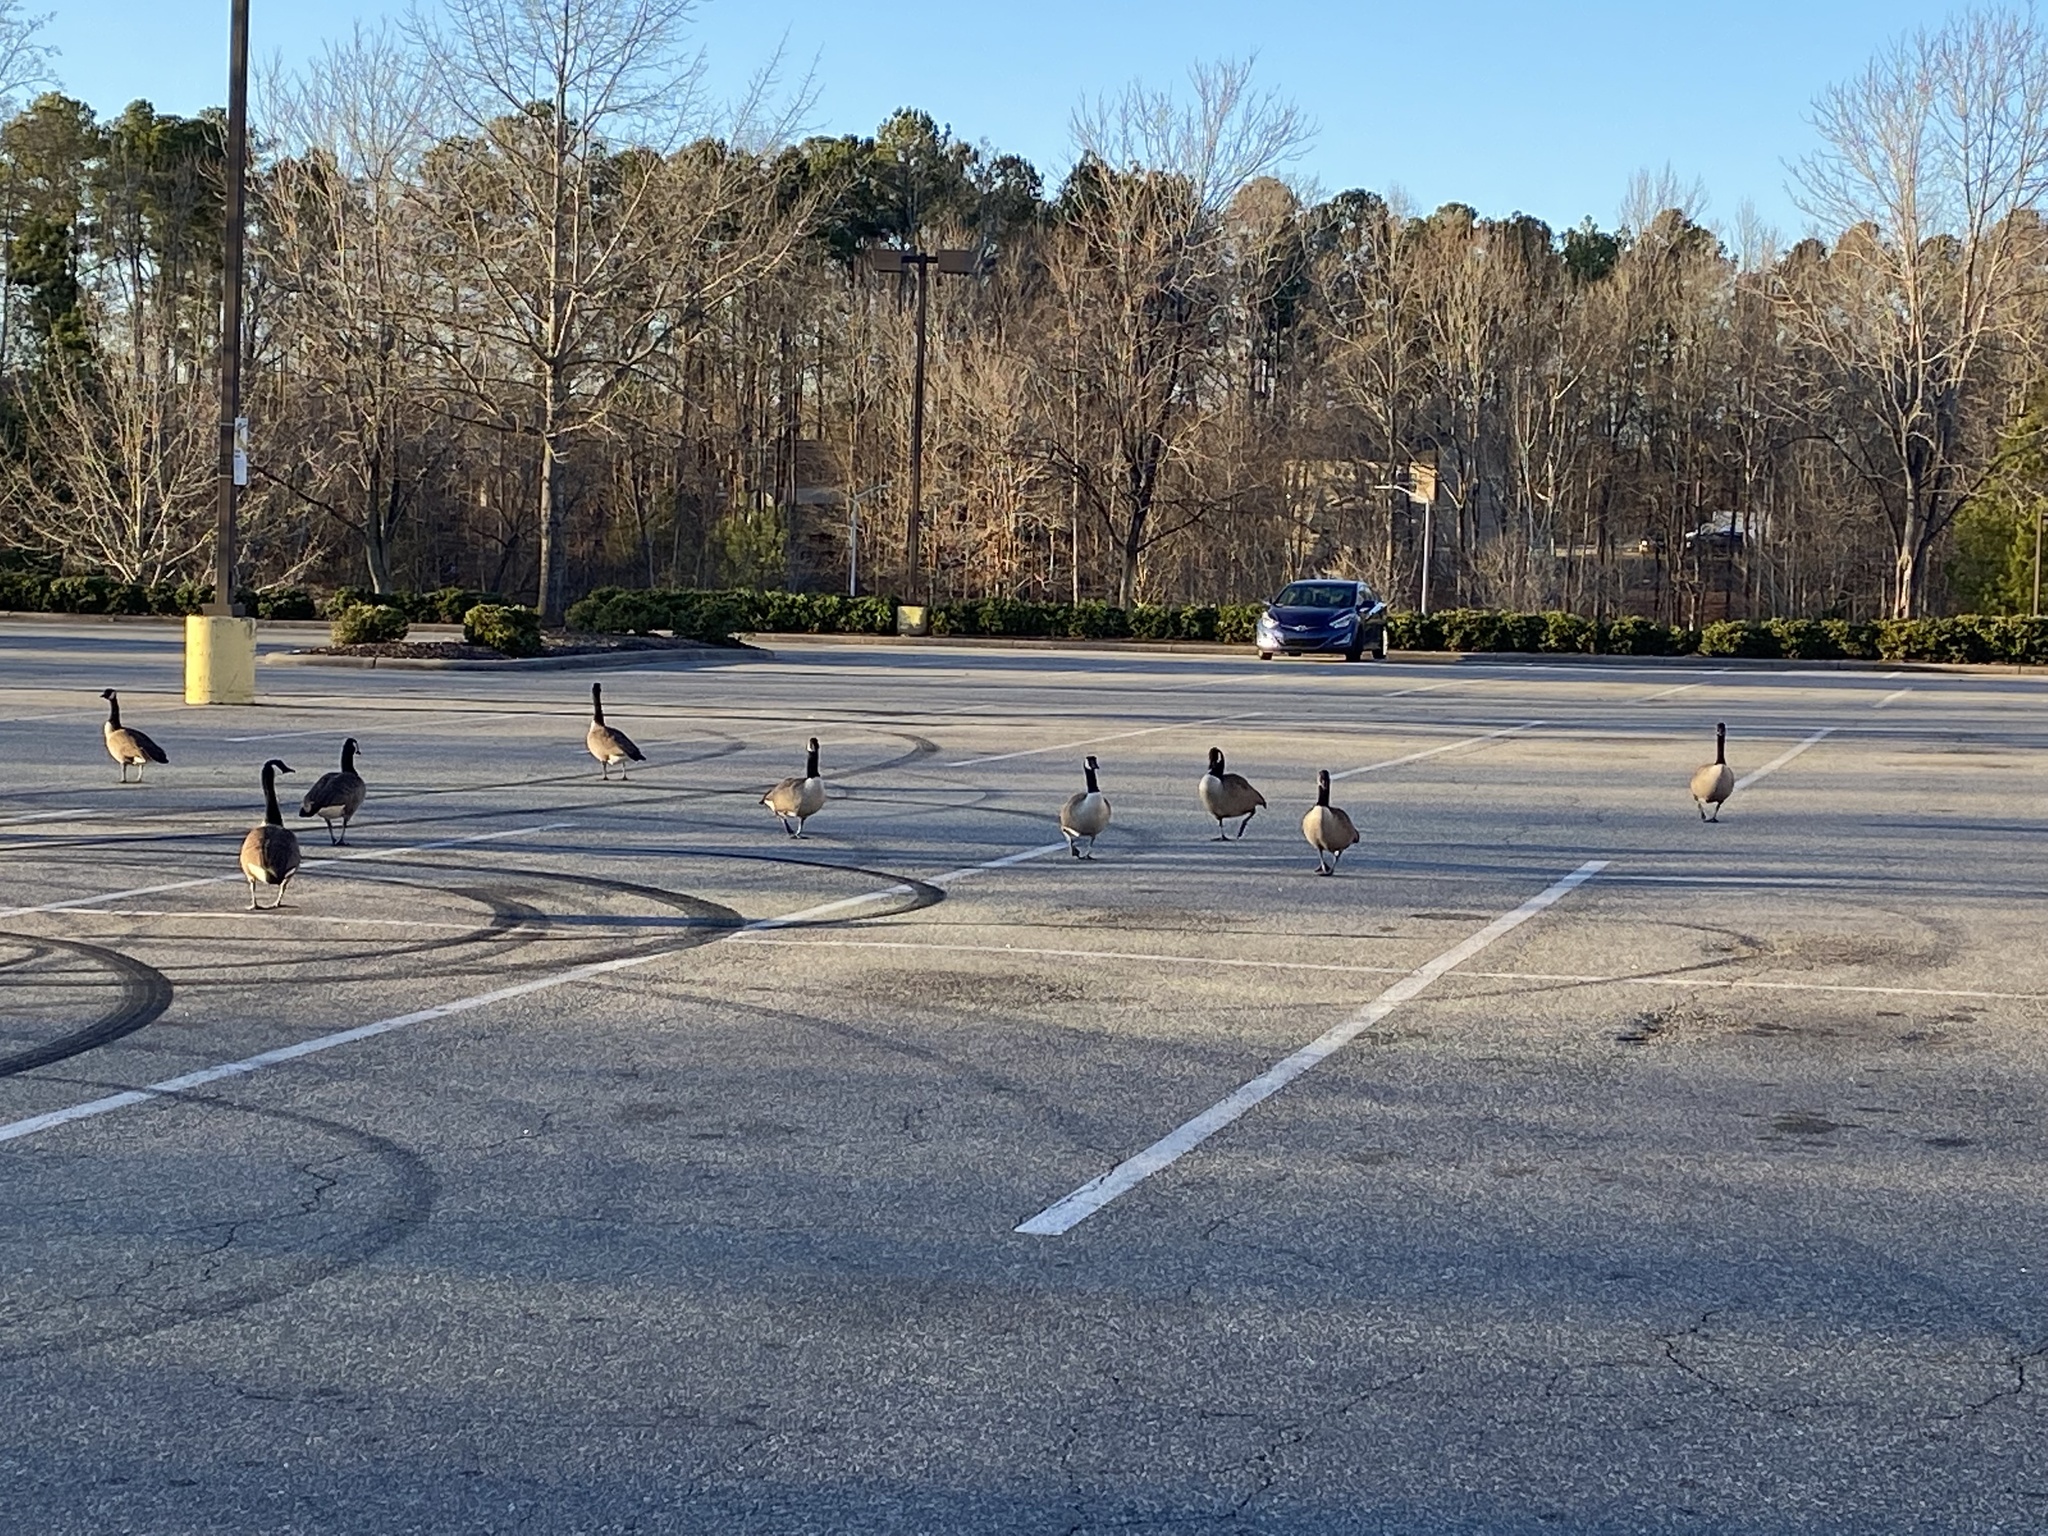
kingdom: Animalia
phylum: Chordata
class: Aves
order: Anseriformes
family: Anatidae
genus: Branta
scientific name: Branta canadensis
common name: Canada goose
